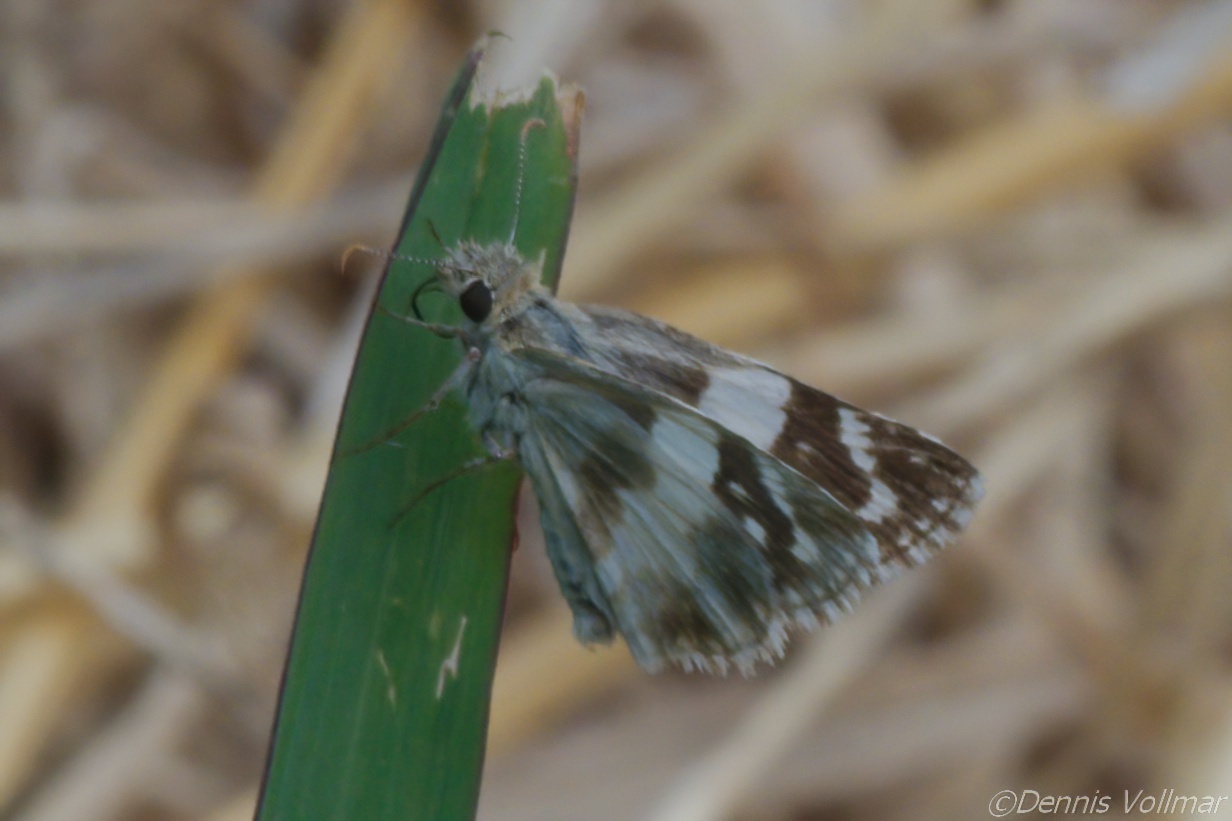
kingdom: Animalia
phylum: Arthropoda
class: Insecta
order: Lepidoptera
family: Hesperiidae
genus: Heliopyrgus
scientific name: Heliopyrgus domicella
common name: Erichson's white skipper
